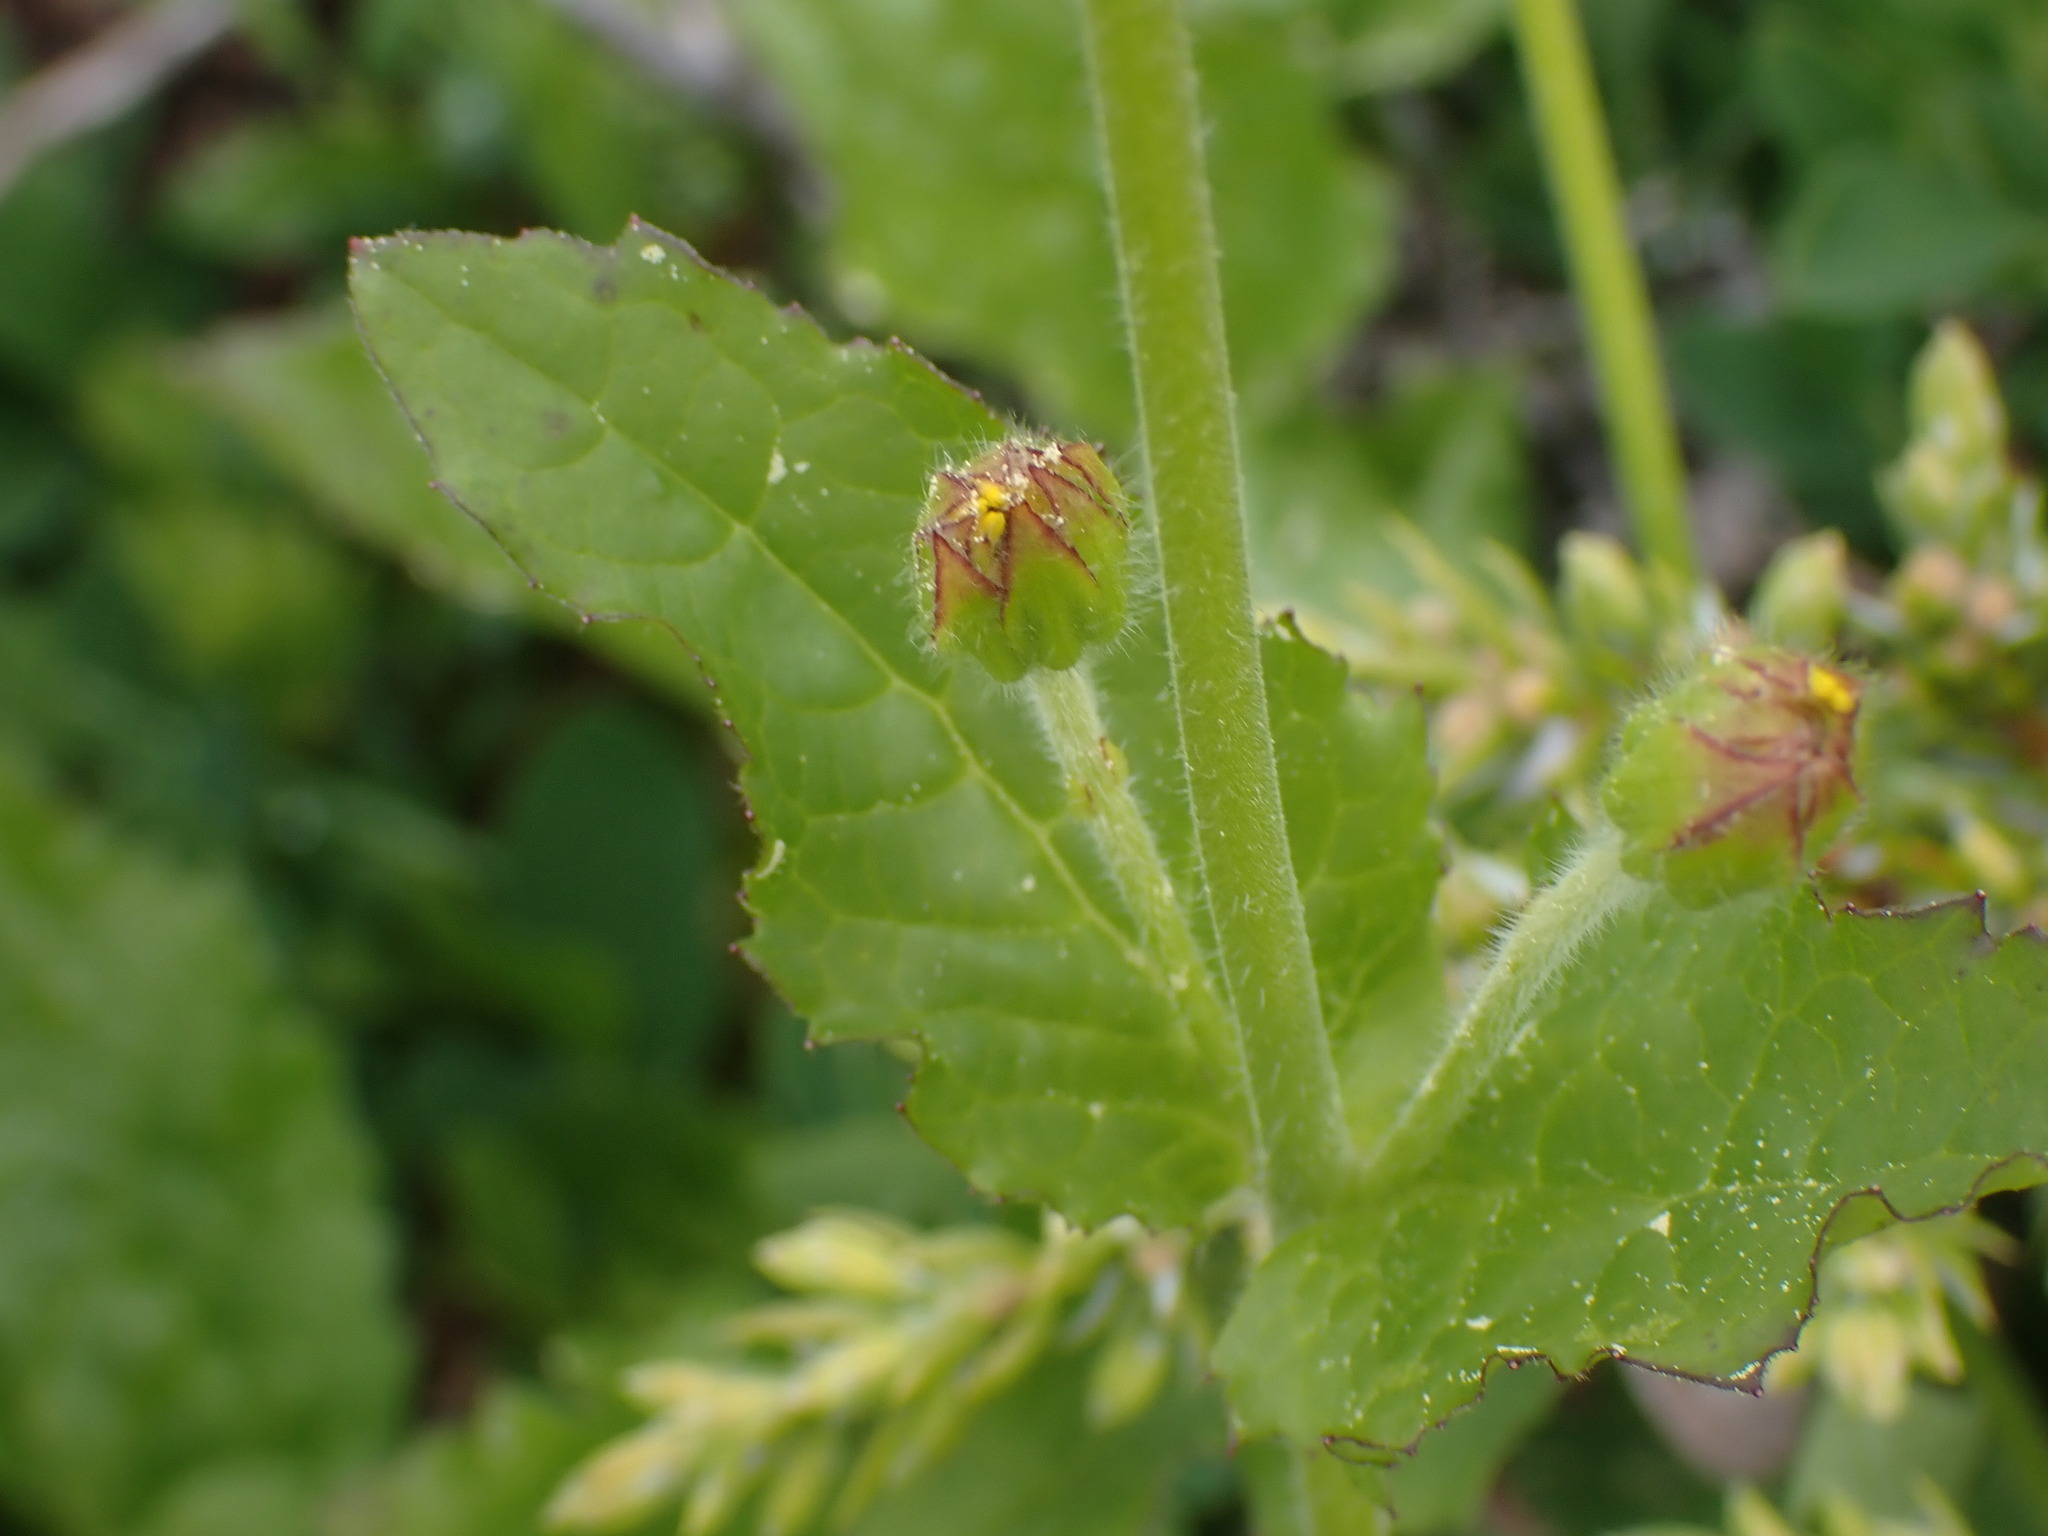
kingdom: Plantae
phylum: Tracheophyta
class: Magnoliopsida
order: Asterales
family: Asteraceae
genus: Arnica
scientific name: Arnica latifolia
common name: Arnica
